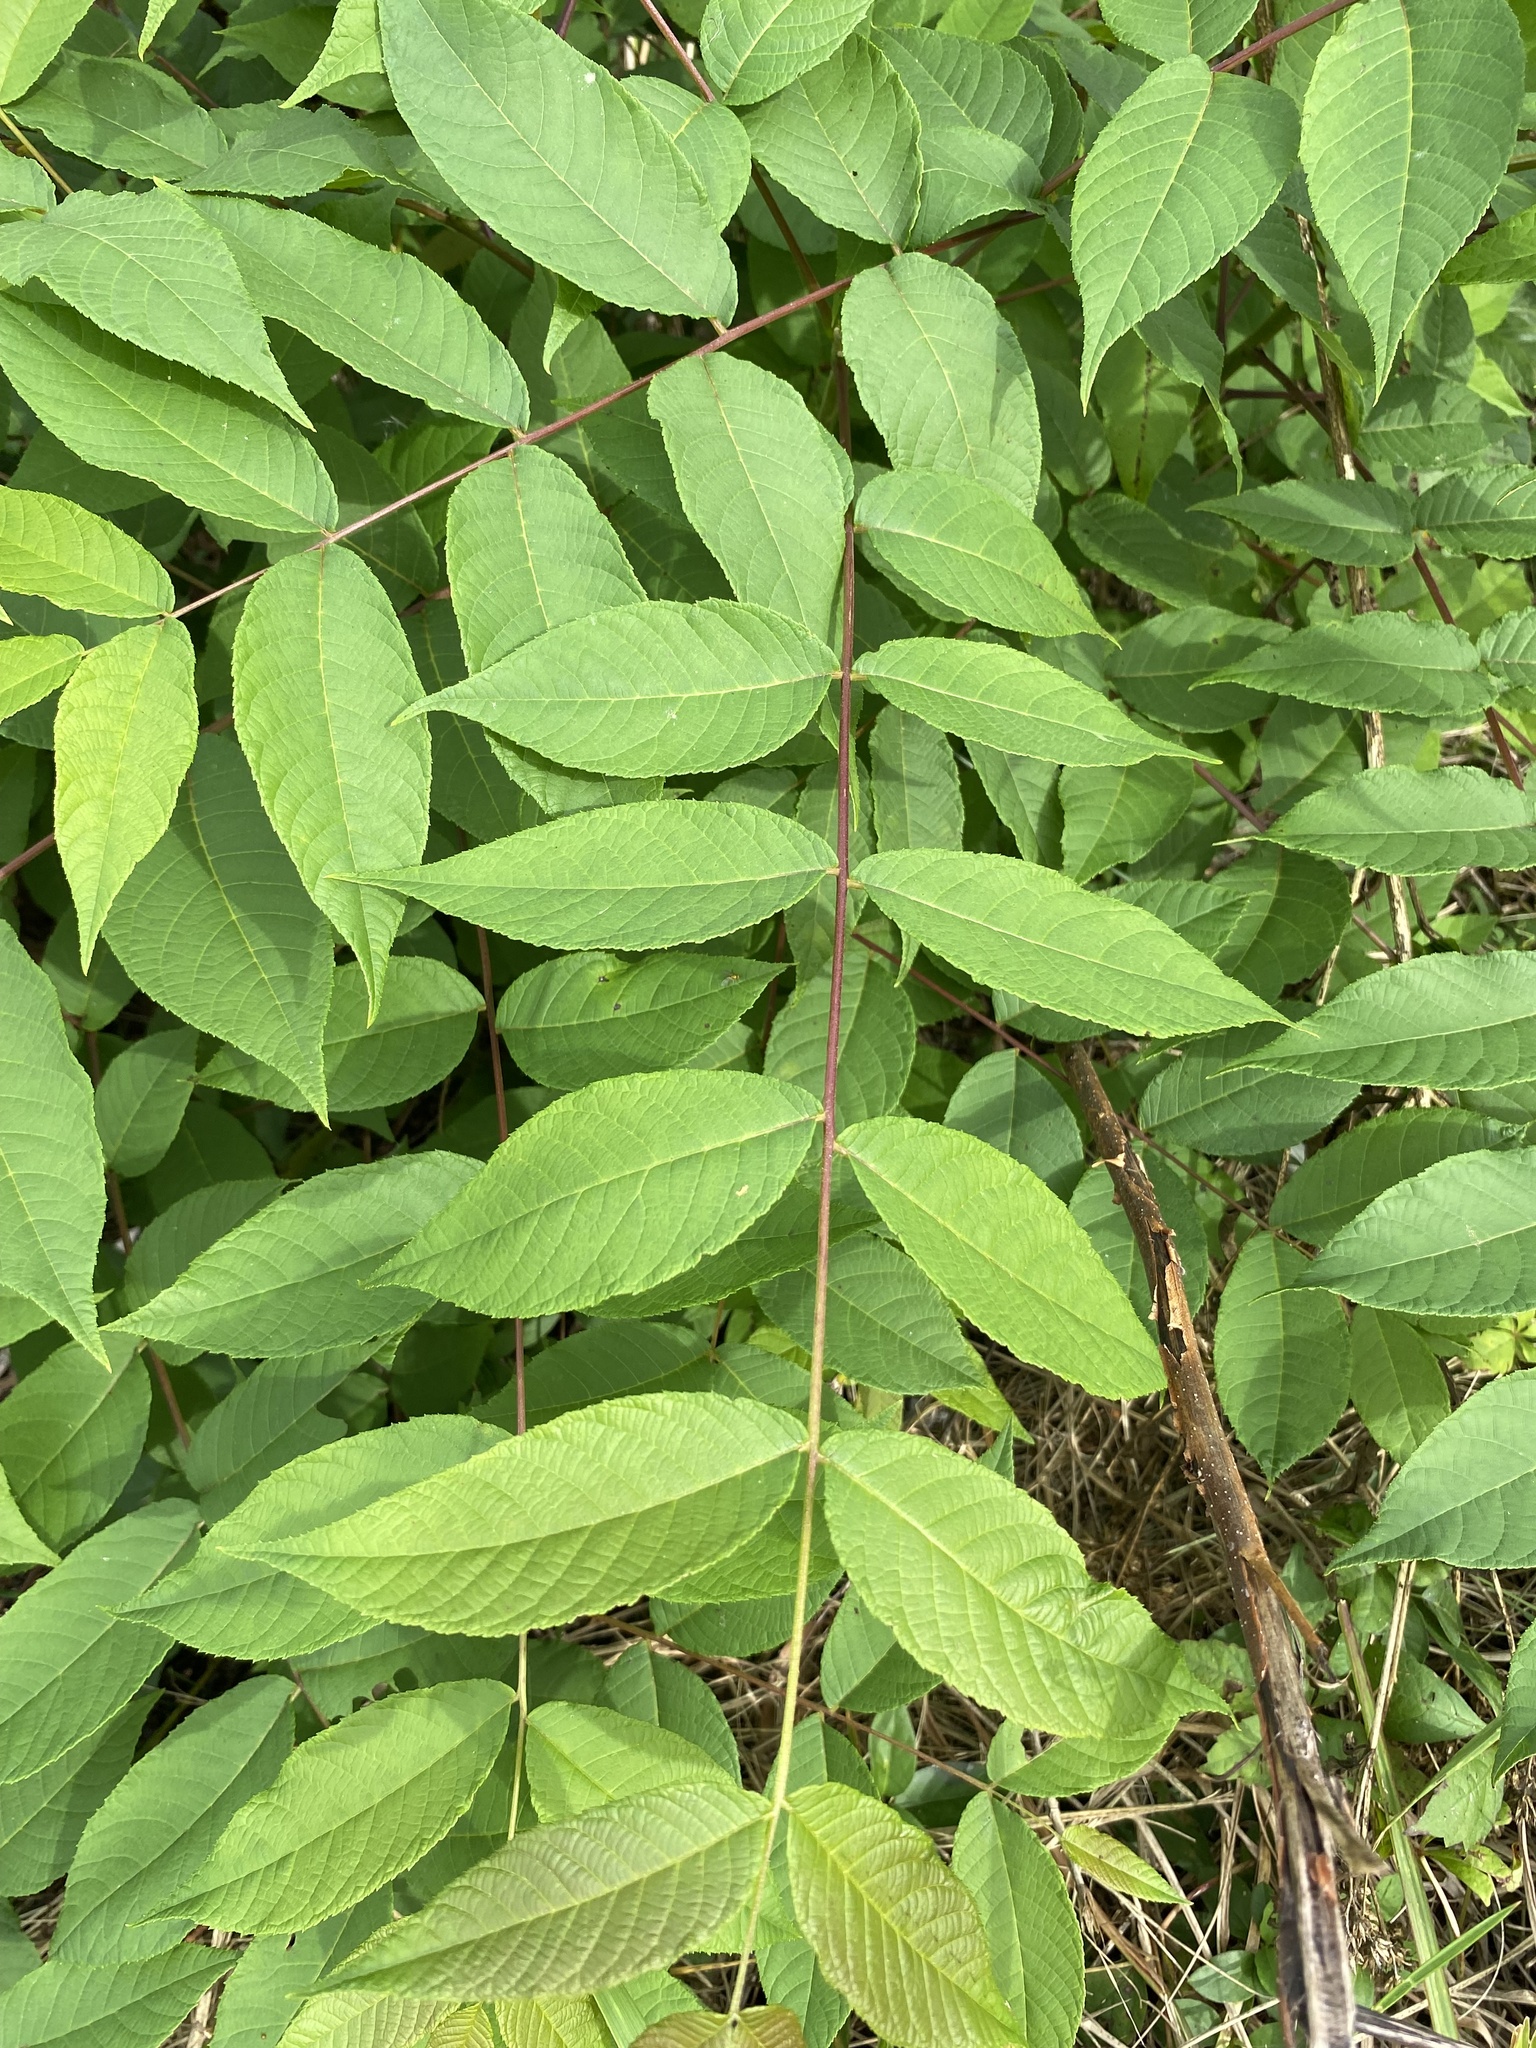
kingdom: Plantae
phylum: Tracheophyta
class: Magnoliopsida
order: Fagales
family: Juglandaceae
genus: Juglans
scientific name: Juglans nigra
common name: Black walnut
